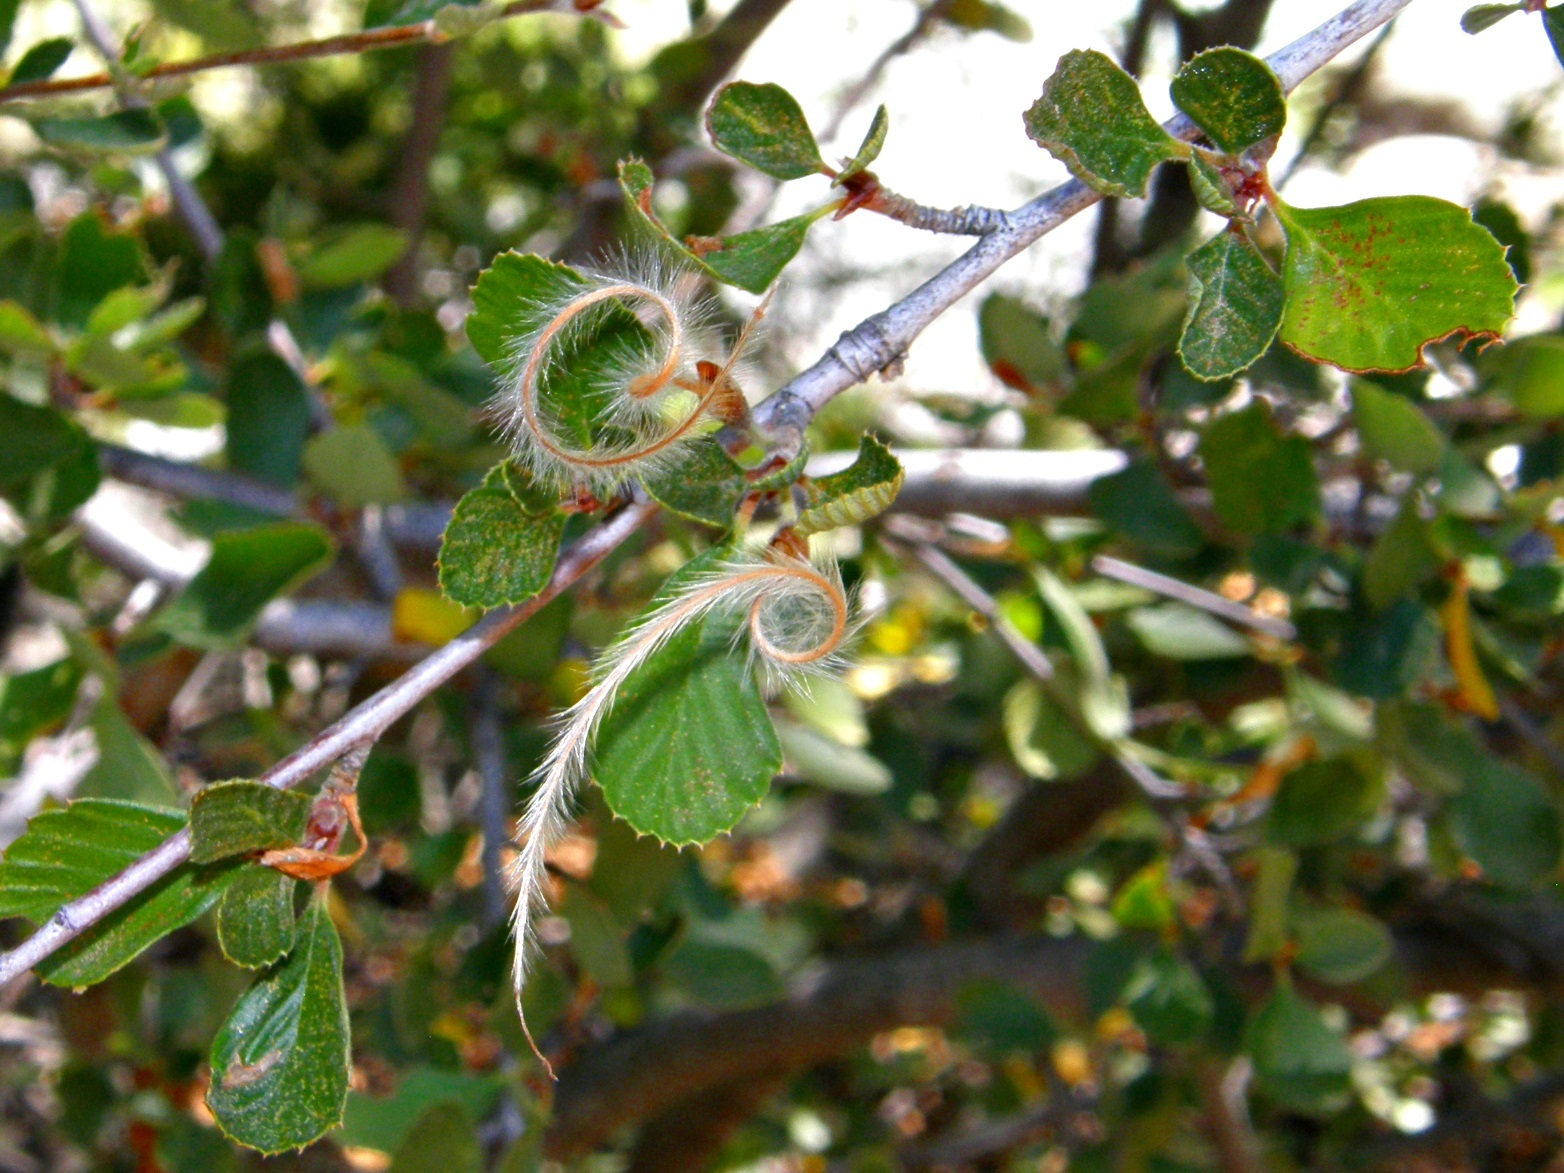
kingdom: Plantae
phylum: Tracheophyta
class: Magnoliopsida
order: Rosales
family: Rosaceae
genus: Cercocarpus
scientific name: Cercocarpus betuloides
